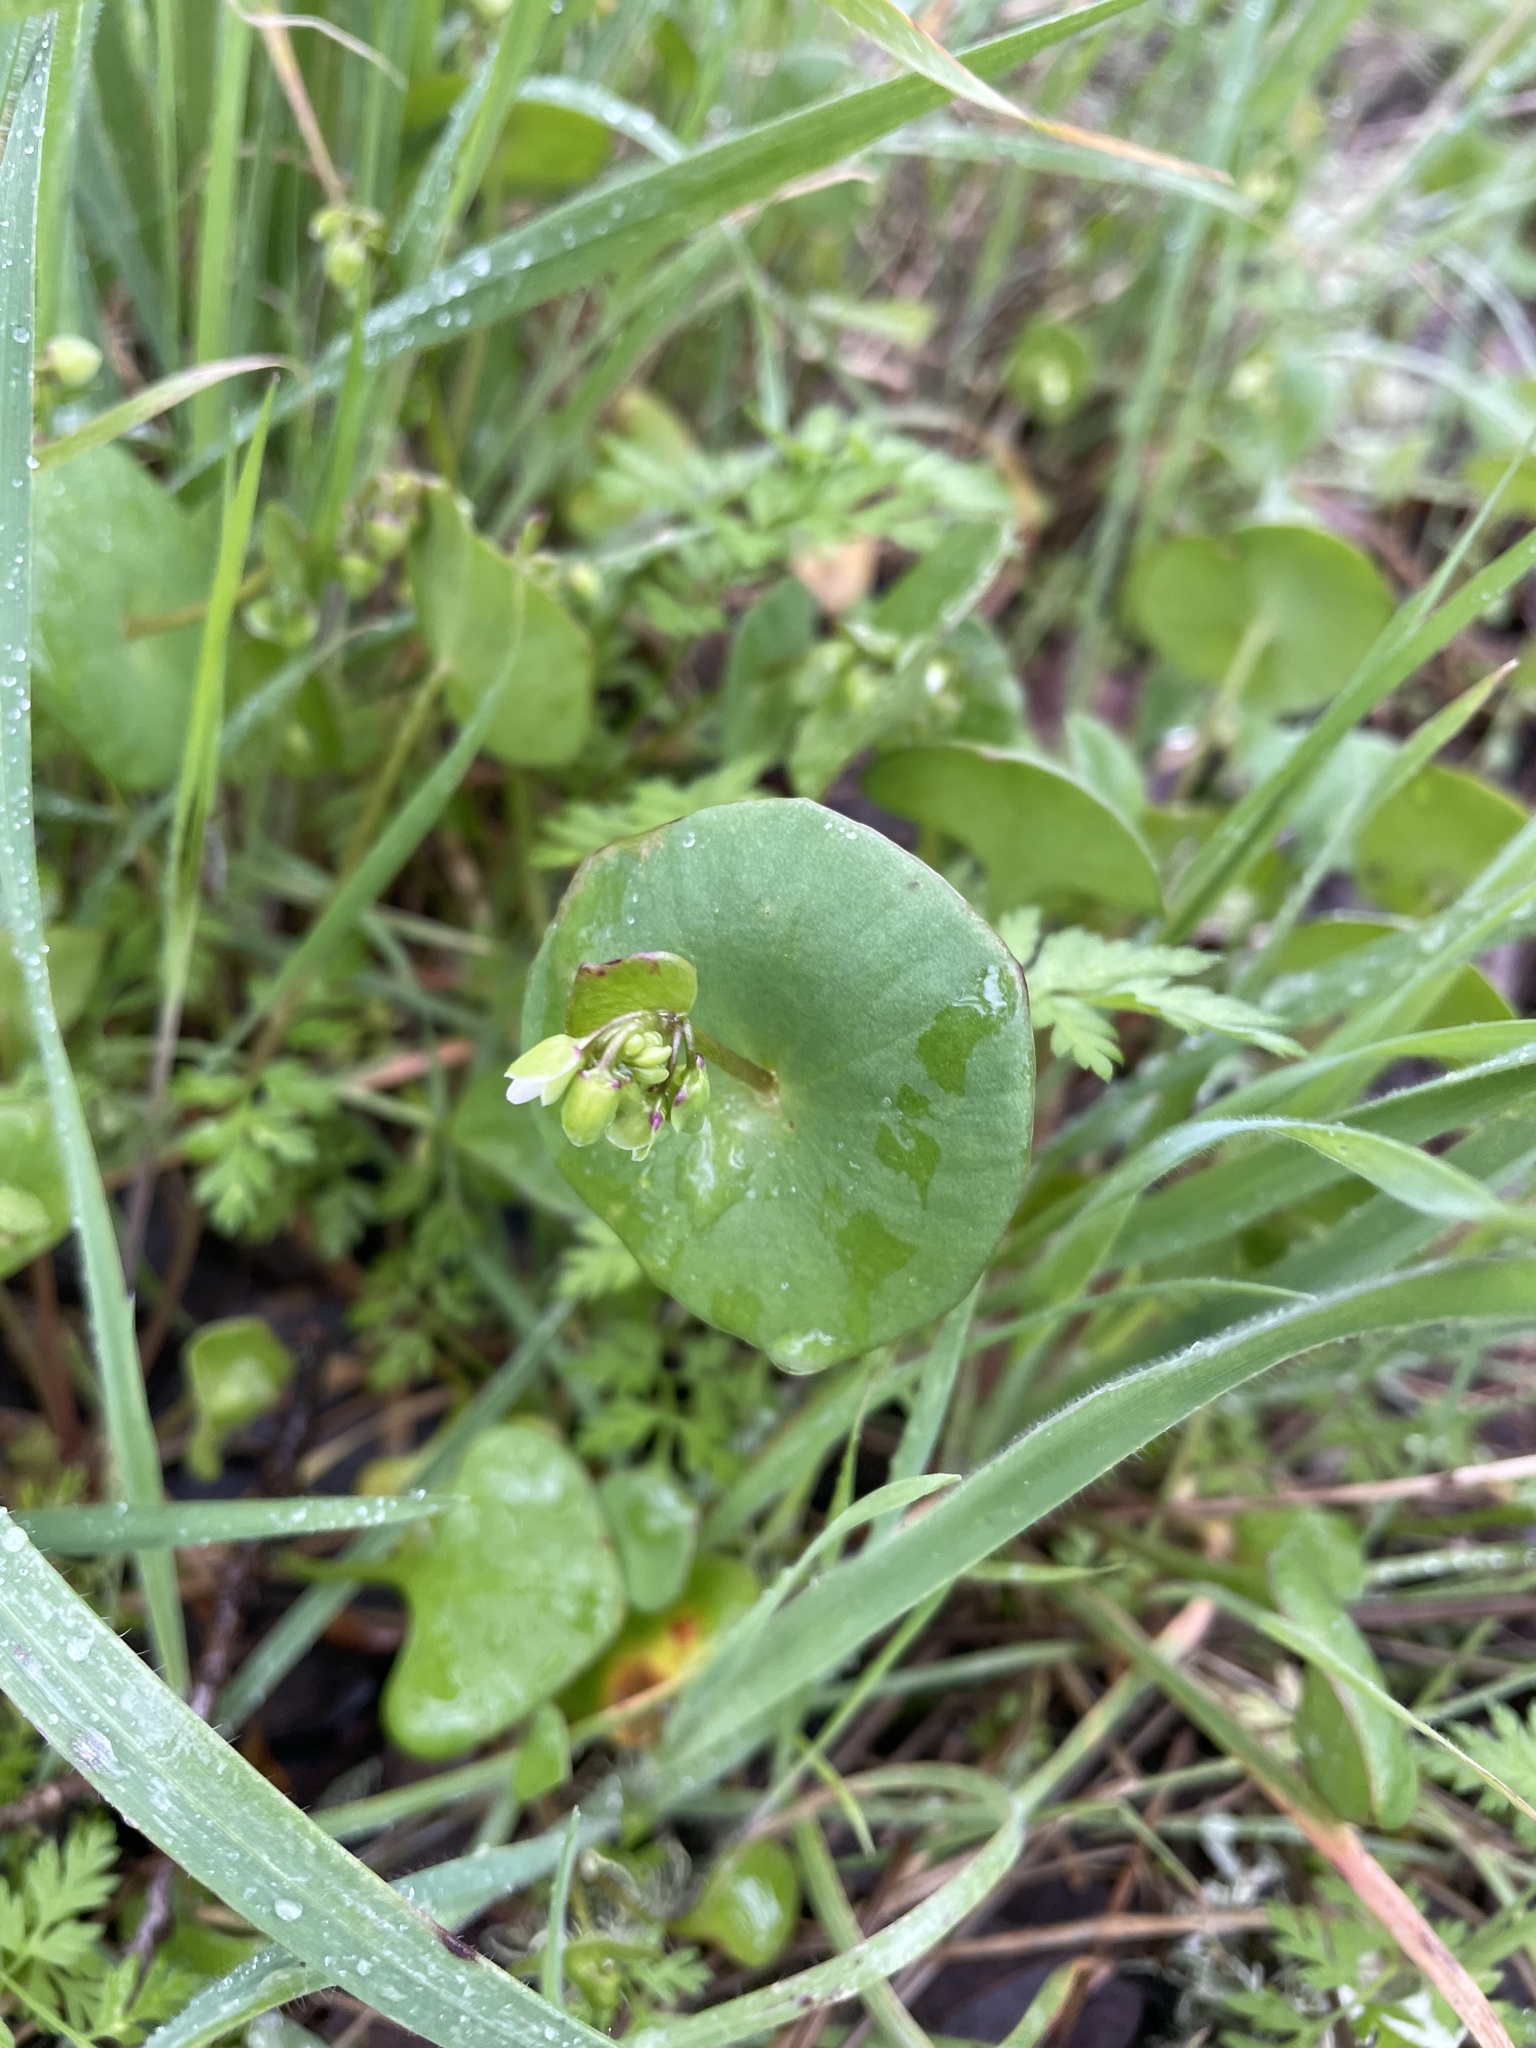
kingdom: Plantae
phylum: Tracheophyta
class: Magnoliopsida
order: Caryophyllales
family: Montiaceae
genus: Claytonia
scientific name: Claytonia perfoliata
